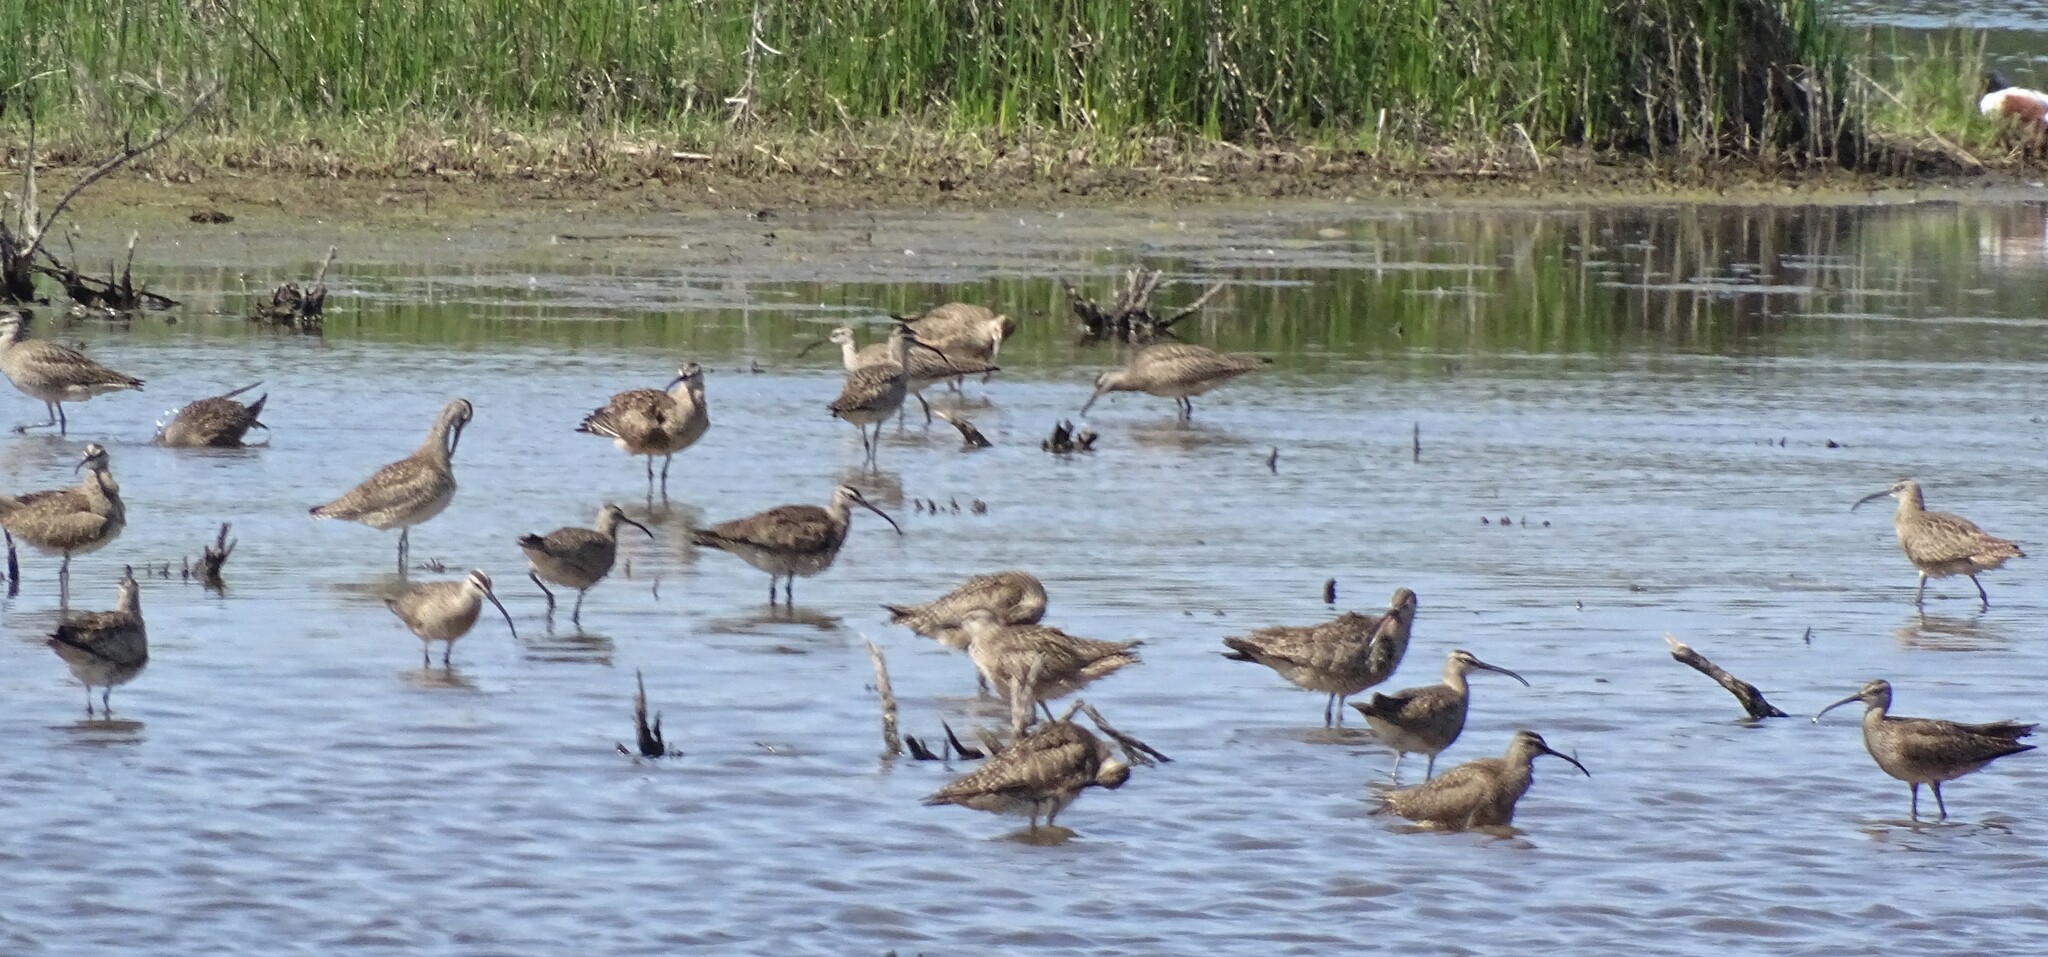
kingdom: Animalia
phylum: Chordata
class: Aves
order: Charadriiformes
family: Scolopacidae
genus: Numenius
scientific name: Numenius phaeopus
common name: Whimbrel
